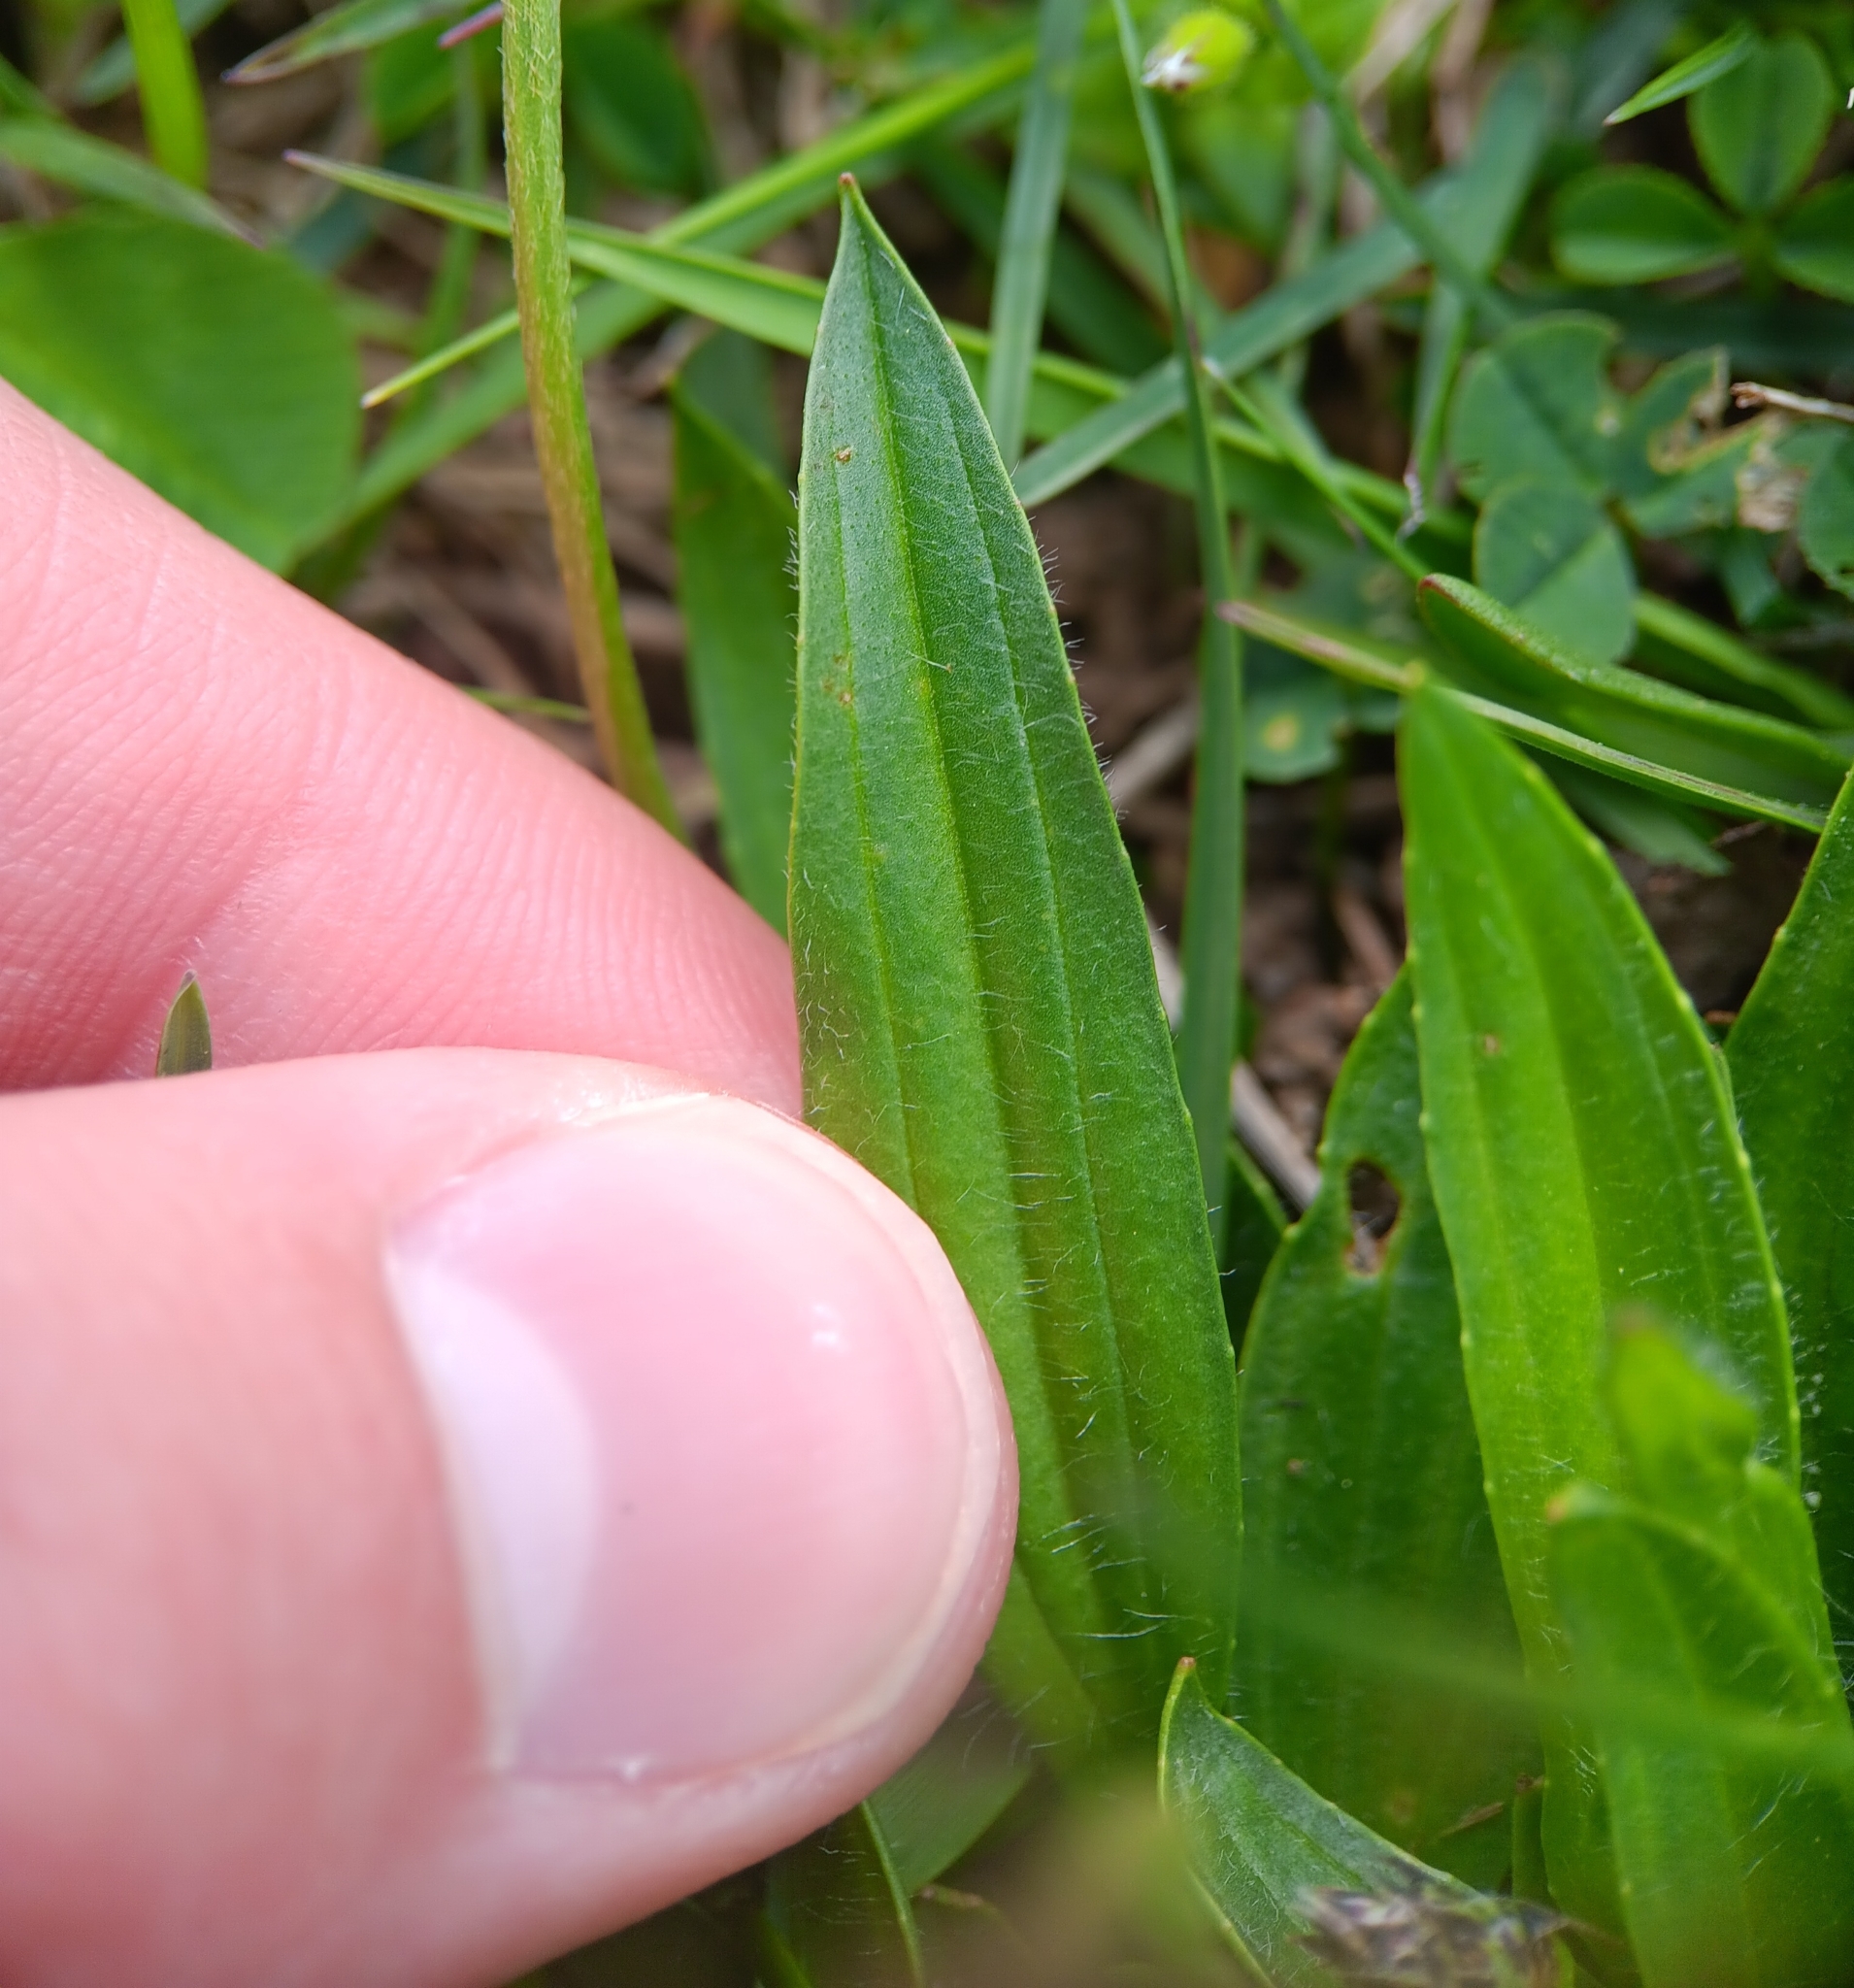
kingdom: Plantae
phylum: Tracheophyta
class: Magnoliopsida
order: Lamiales
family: Plantaginaceae
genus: Plantago
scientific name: Plantago lanceolata
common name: Ribwort plantain
